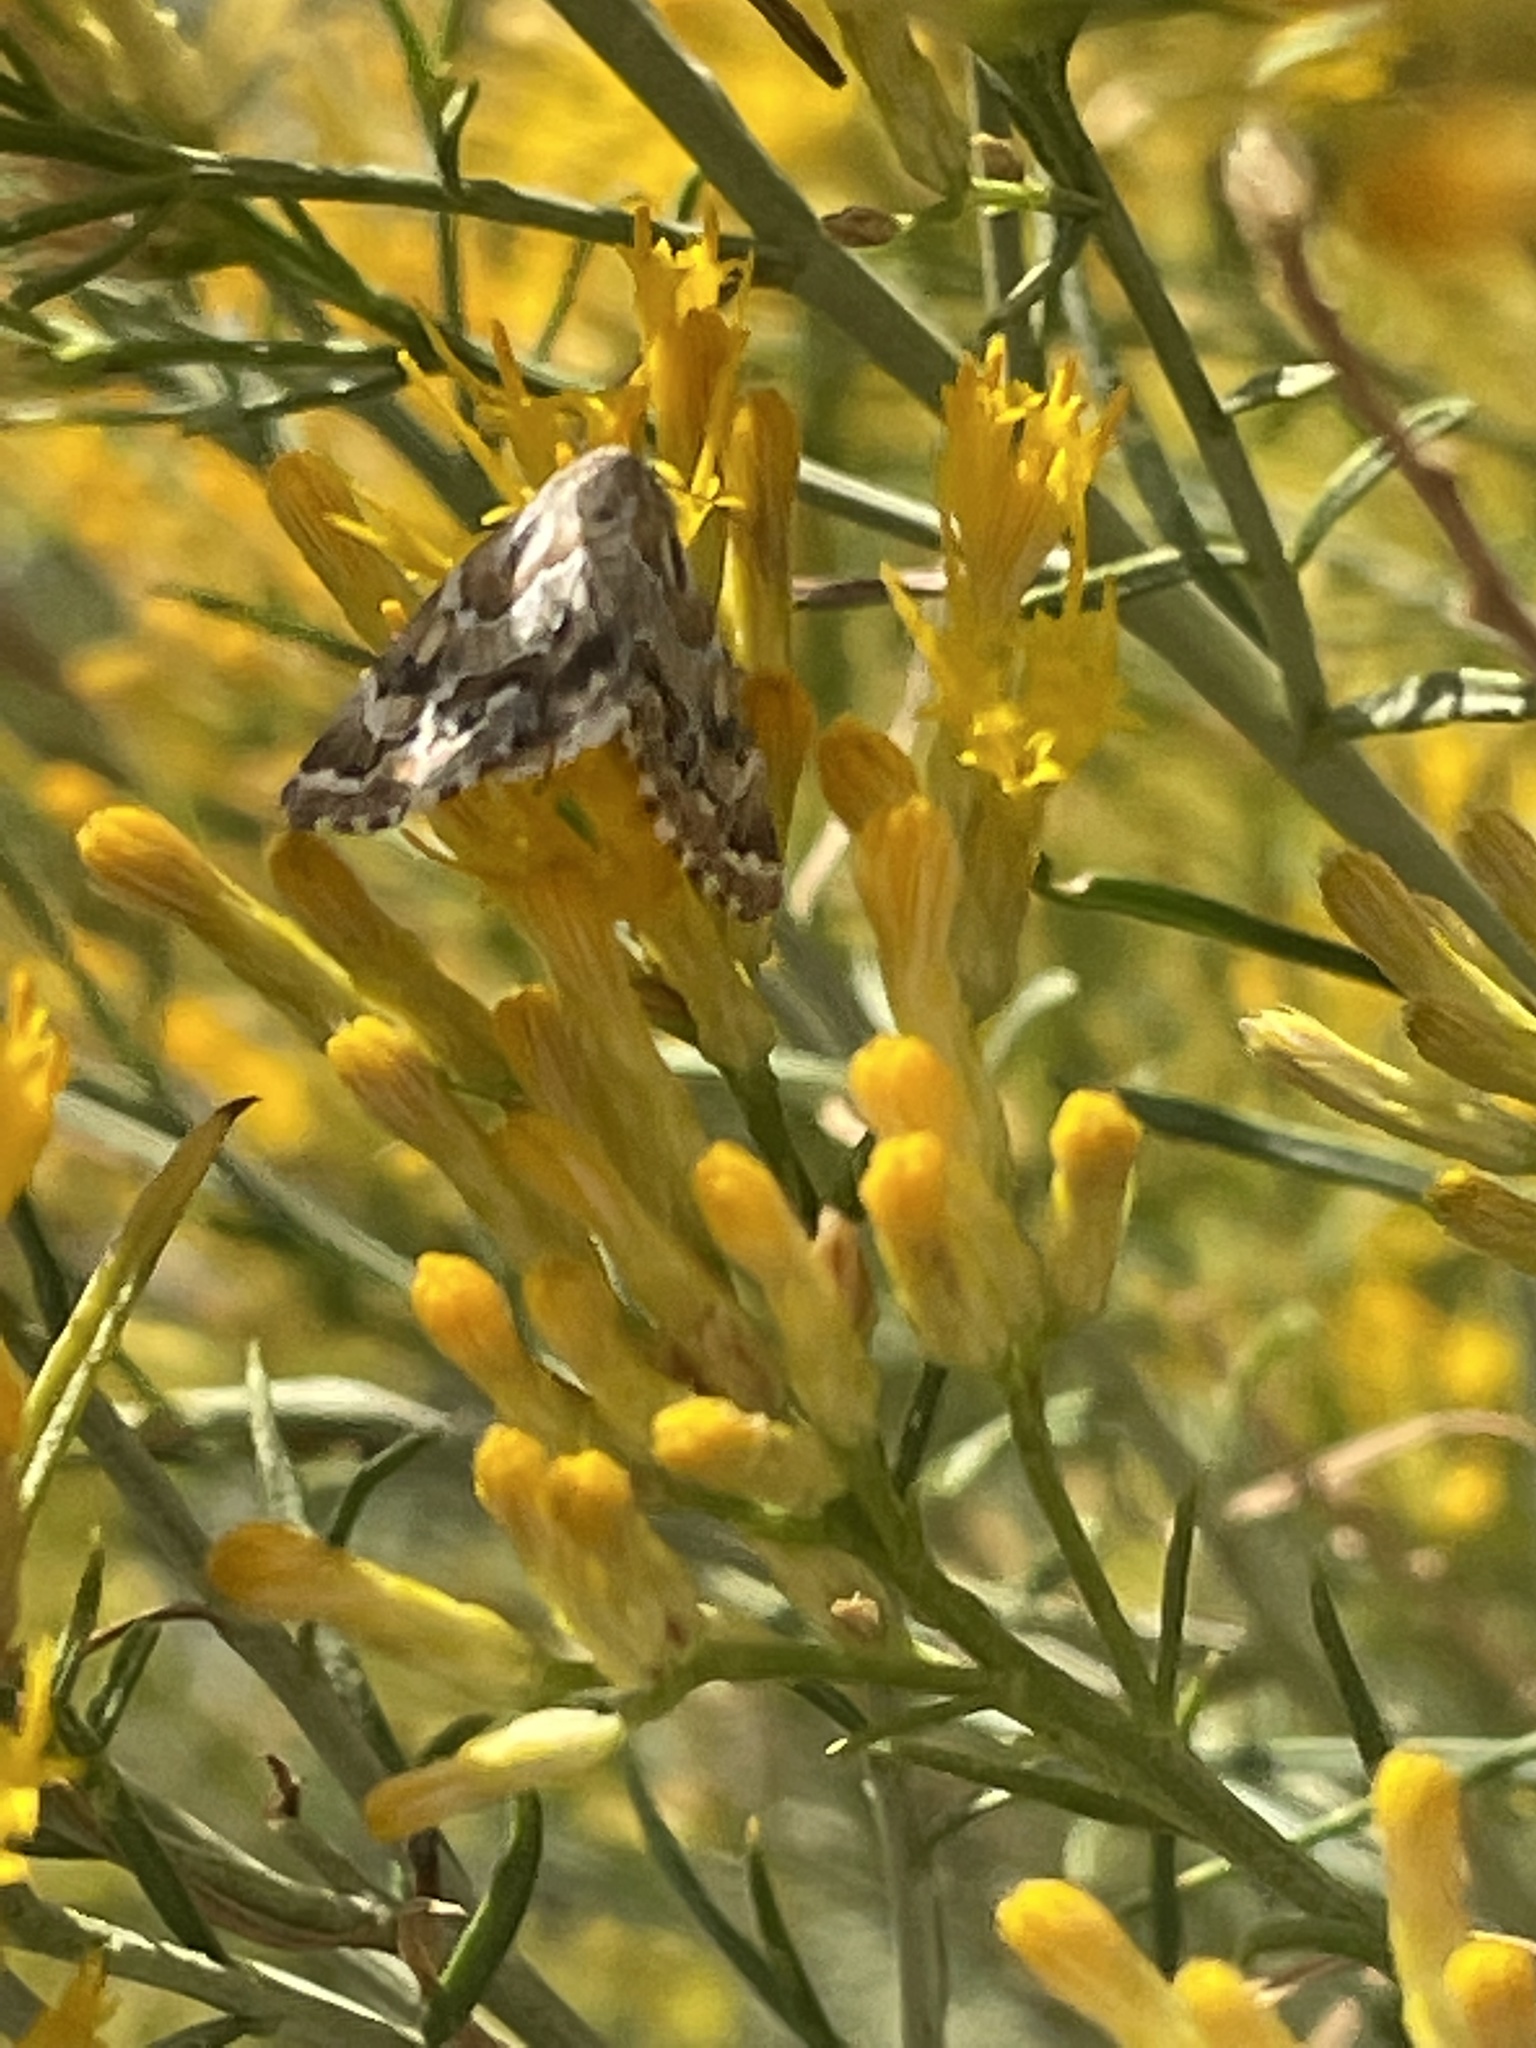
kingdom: Animalia
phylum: Arthropoda
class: Insecta
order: Lepidoptera
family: Noctuidae
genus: Schinia
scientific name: Schinia acutilinea
